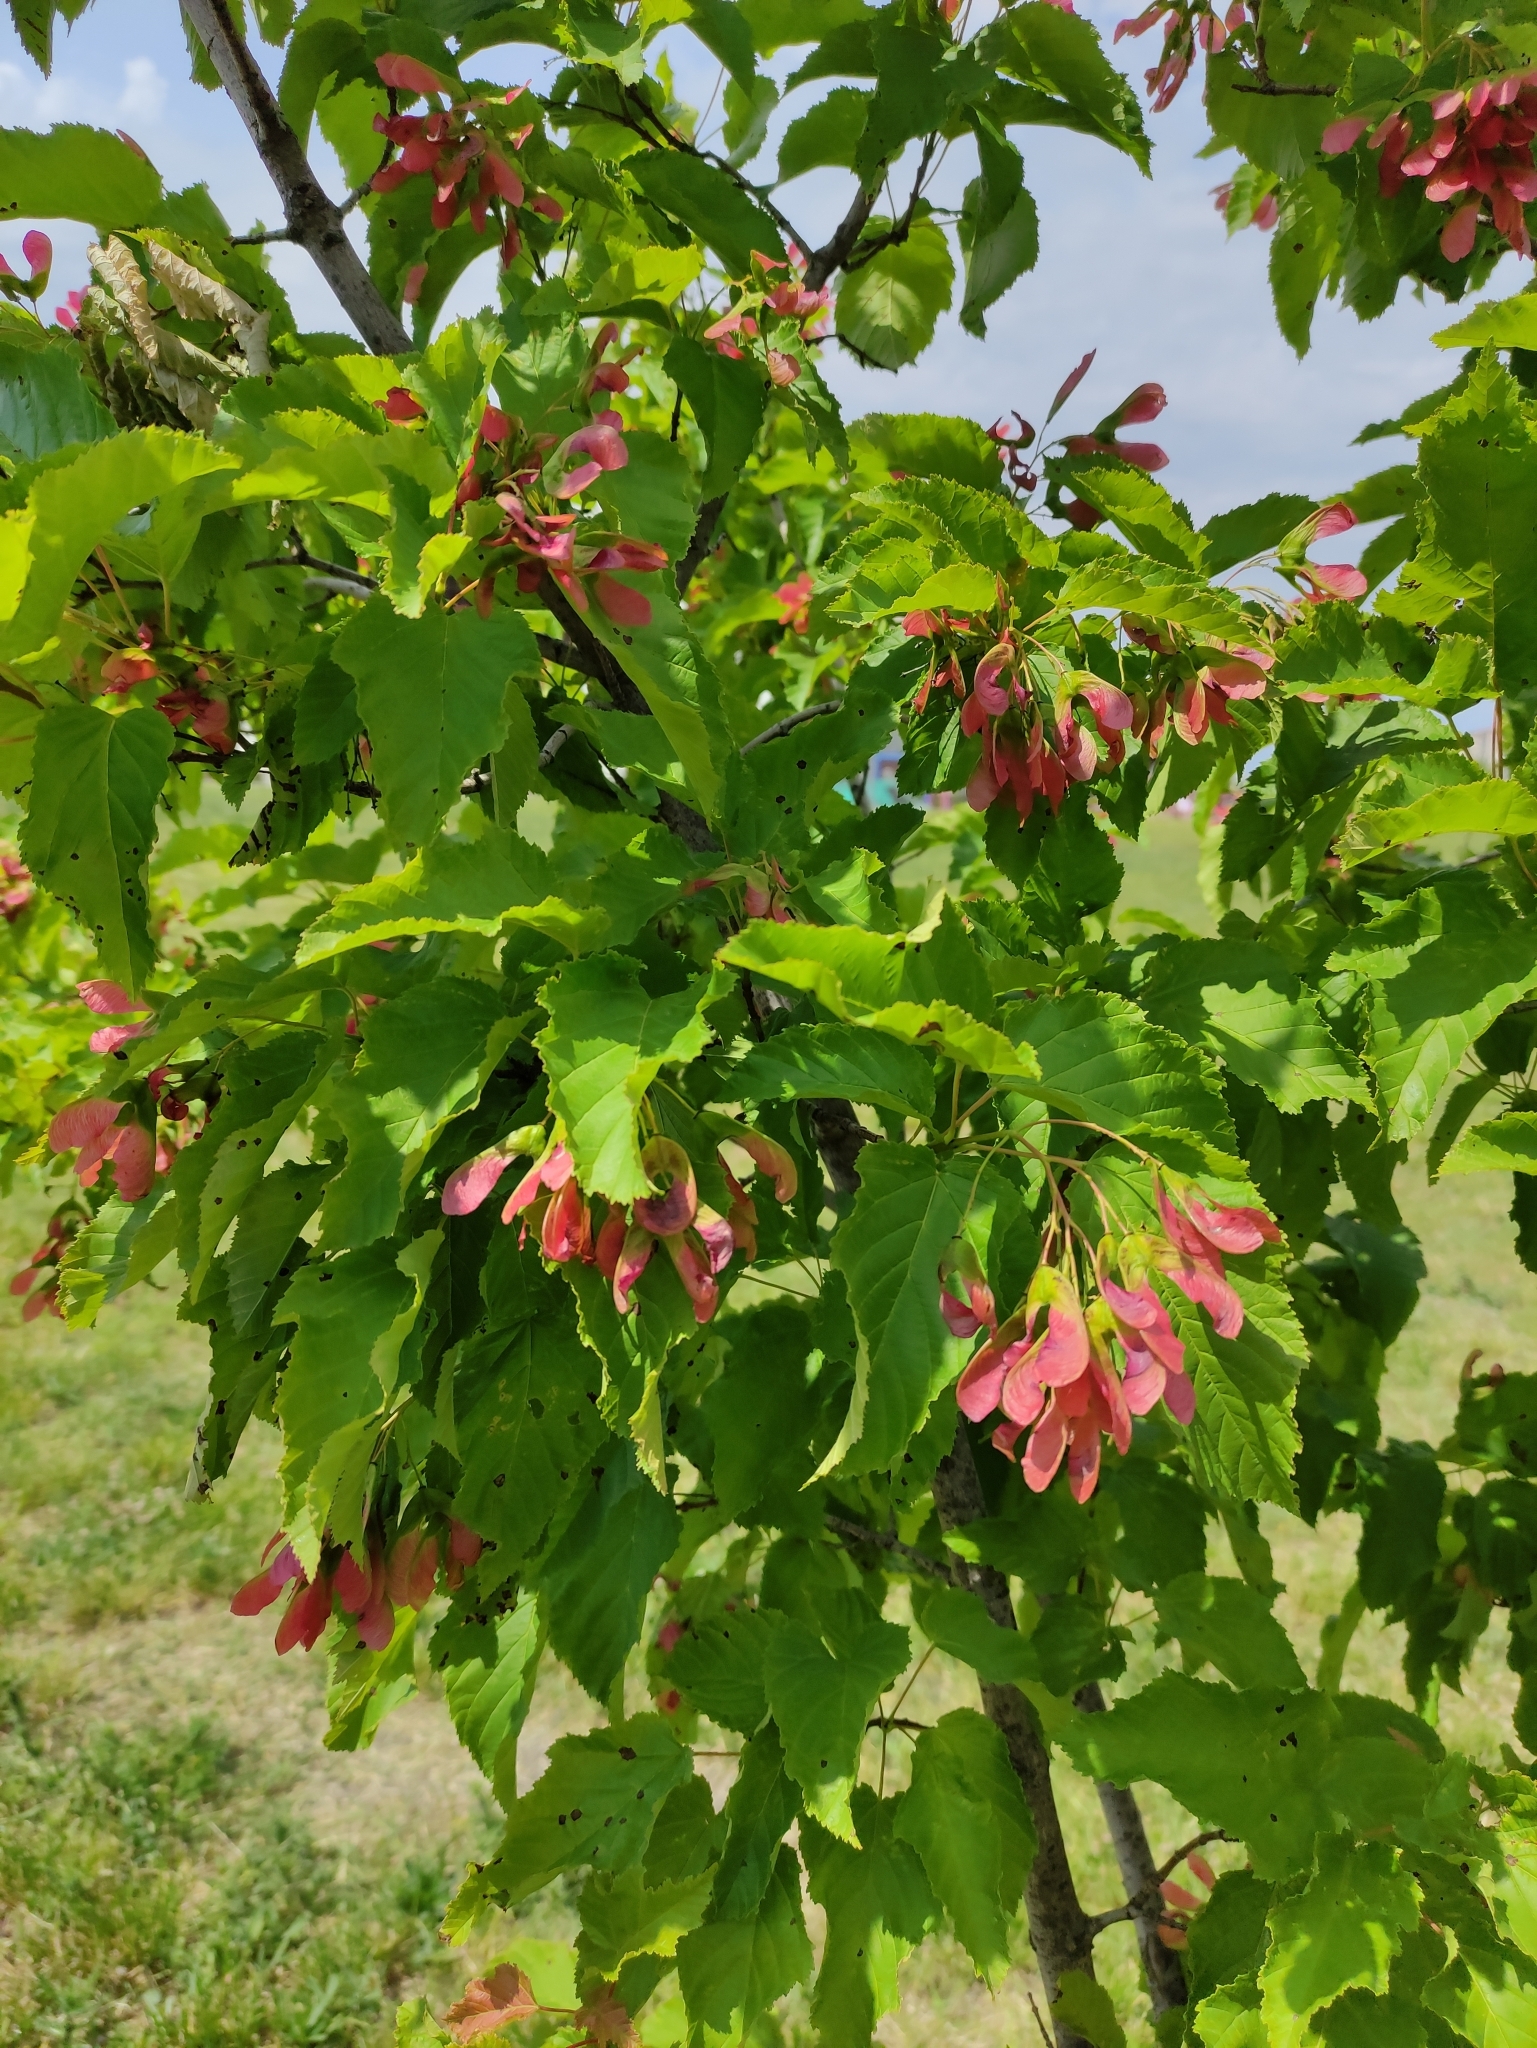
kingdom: Plantae
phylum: Tracheophyta
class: Magnoliopsida
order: Sapindales
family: Sapindaceae
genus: Acer
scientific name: Acer tataricum
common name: Tartar maple
